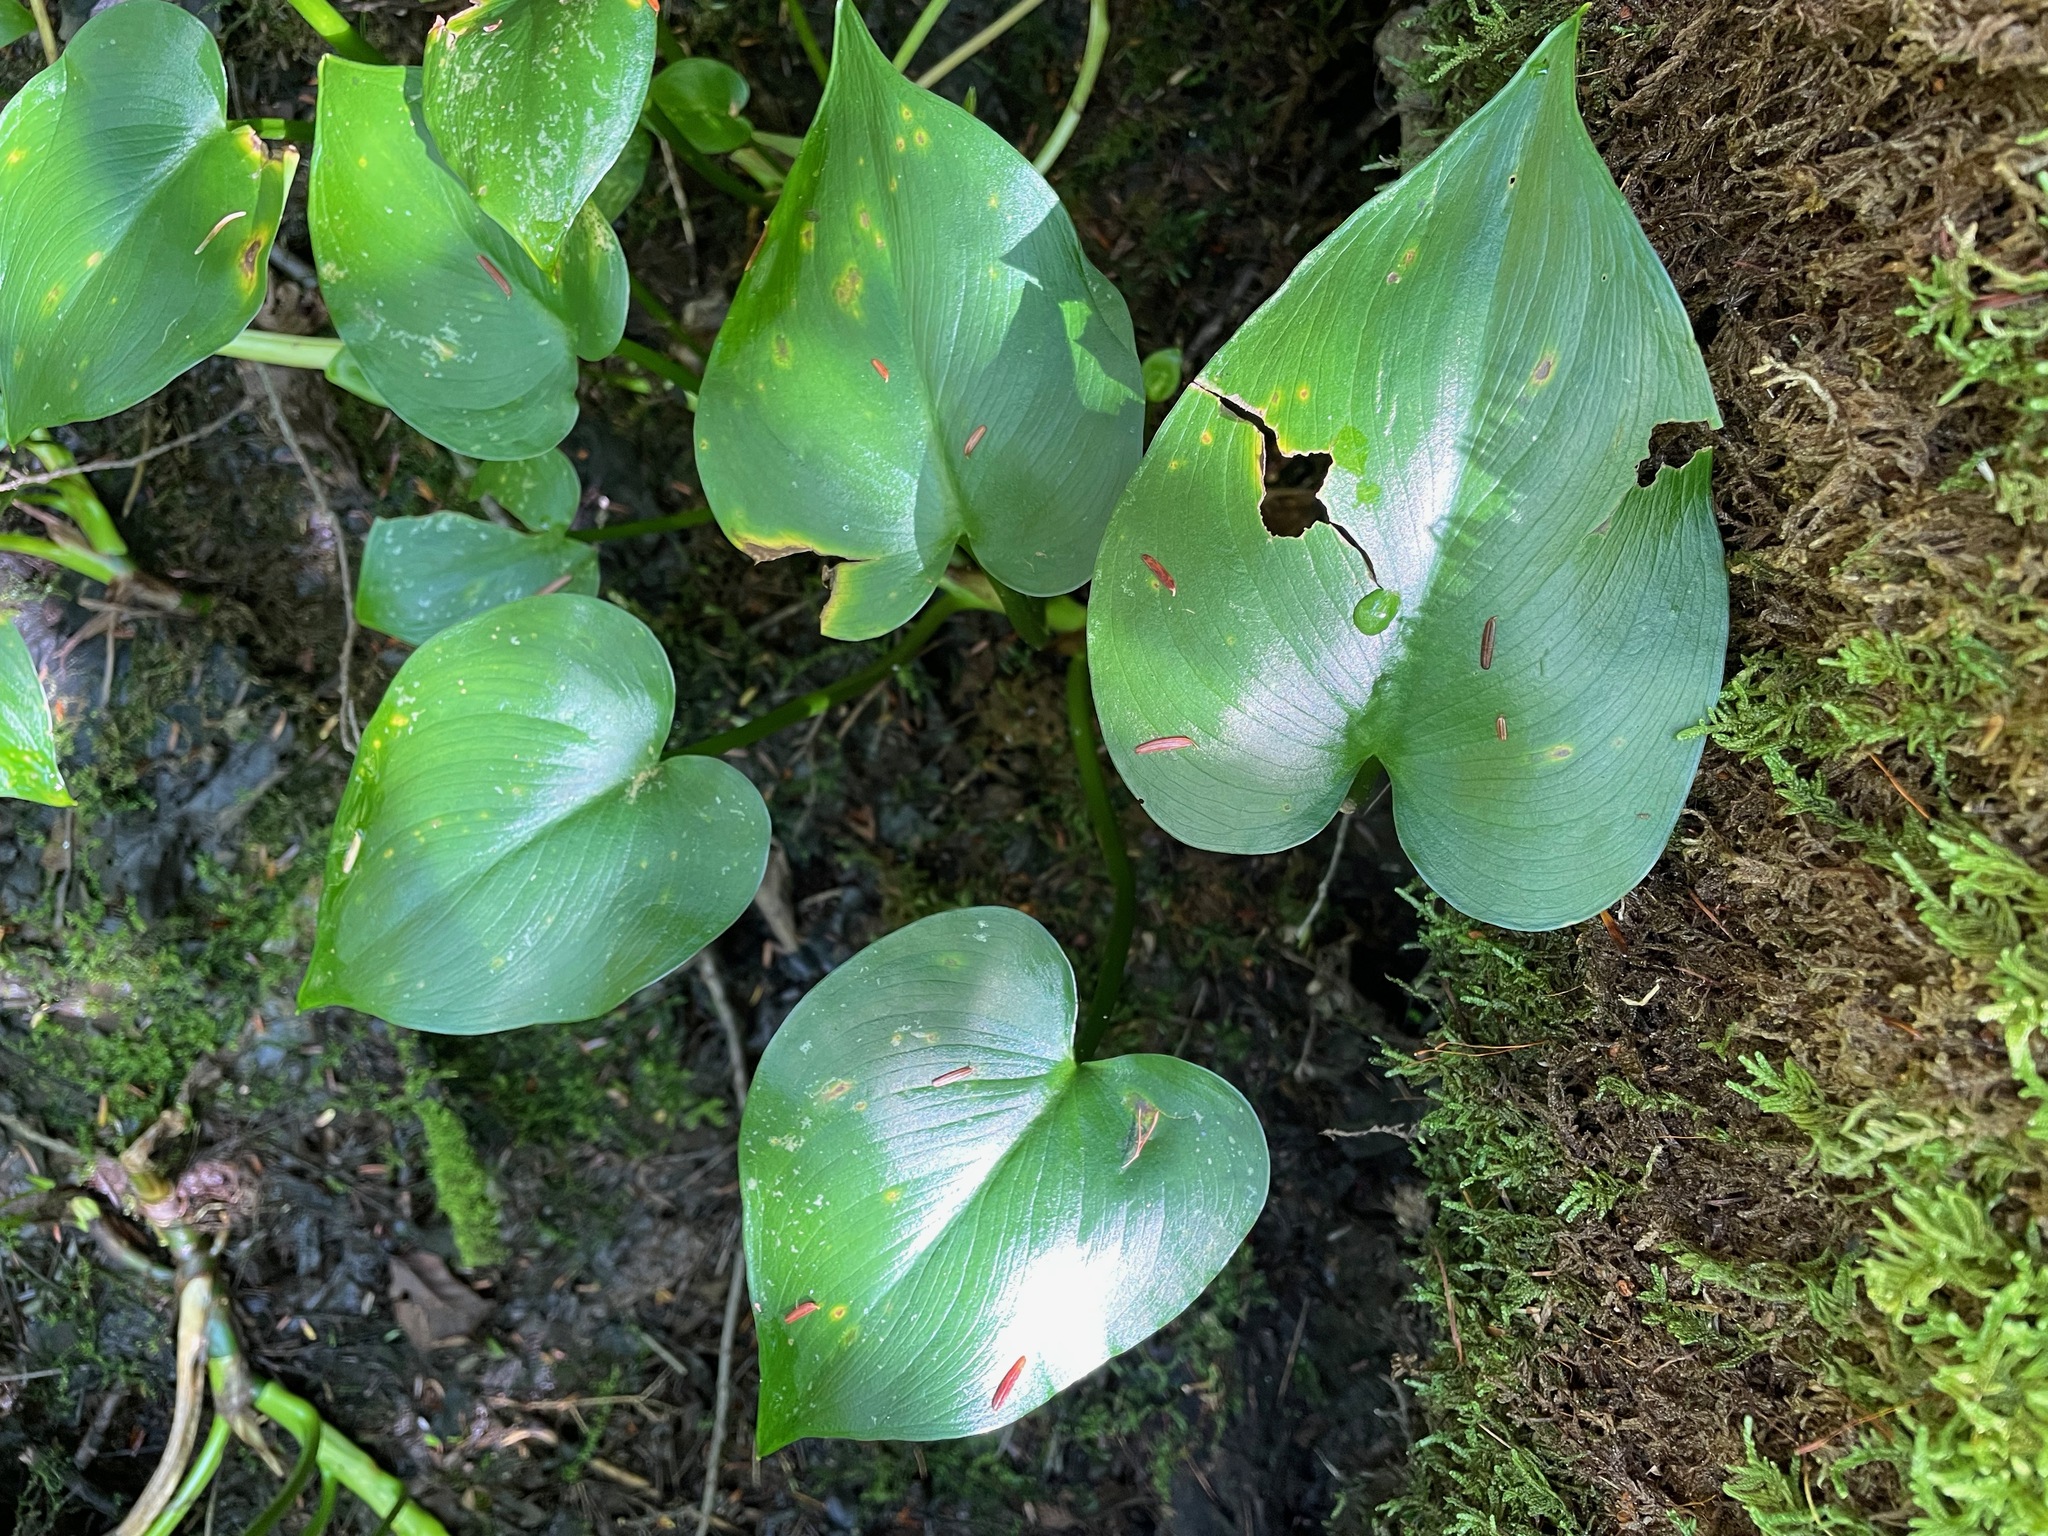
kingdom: Plantae
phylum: Tracheophyta
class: Liliopsida
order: Alismatales
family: Araceae
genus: Calla
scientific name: Calla palustris
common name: Bog arum
